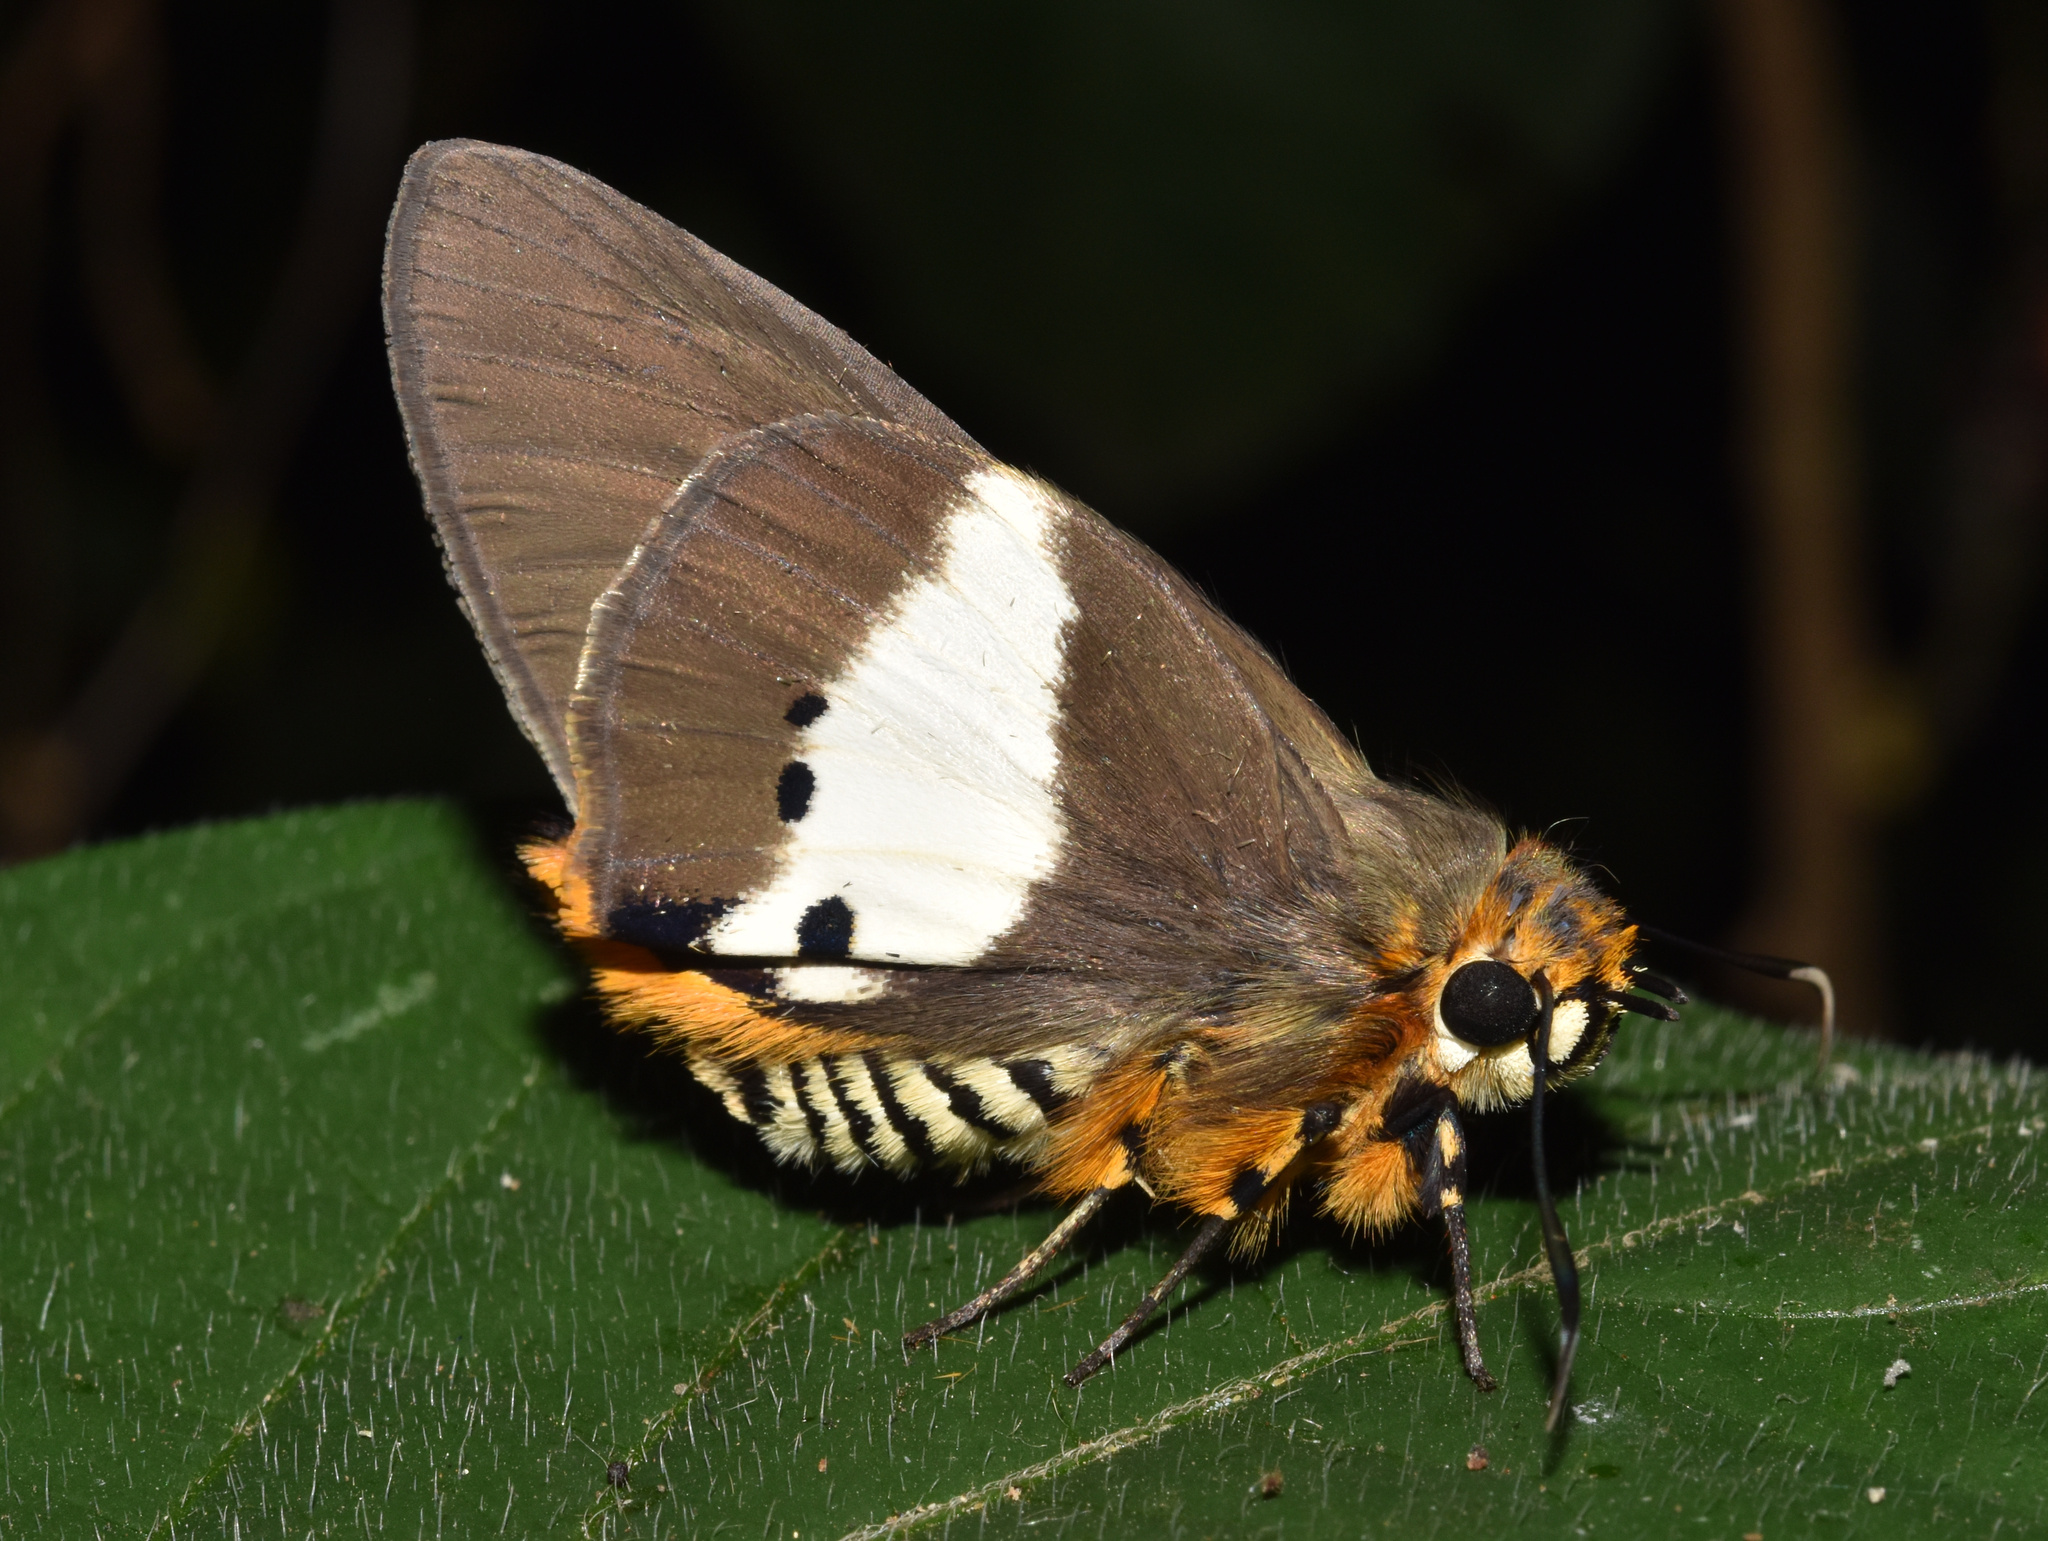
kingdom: Animalia
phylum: Arthropoda
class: Insecta
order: Lepidoptera
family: Hesperiidae
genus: Coeliades
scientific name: Coeliades pisistratus
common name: Two-pip policeman
